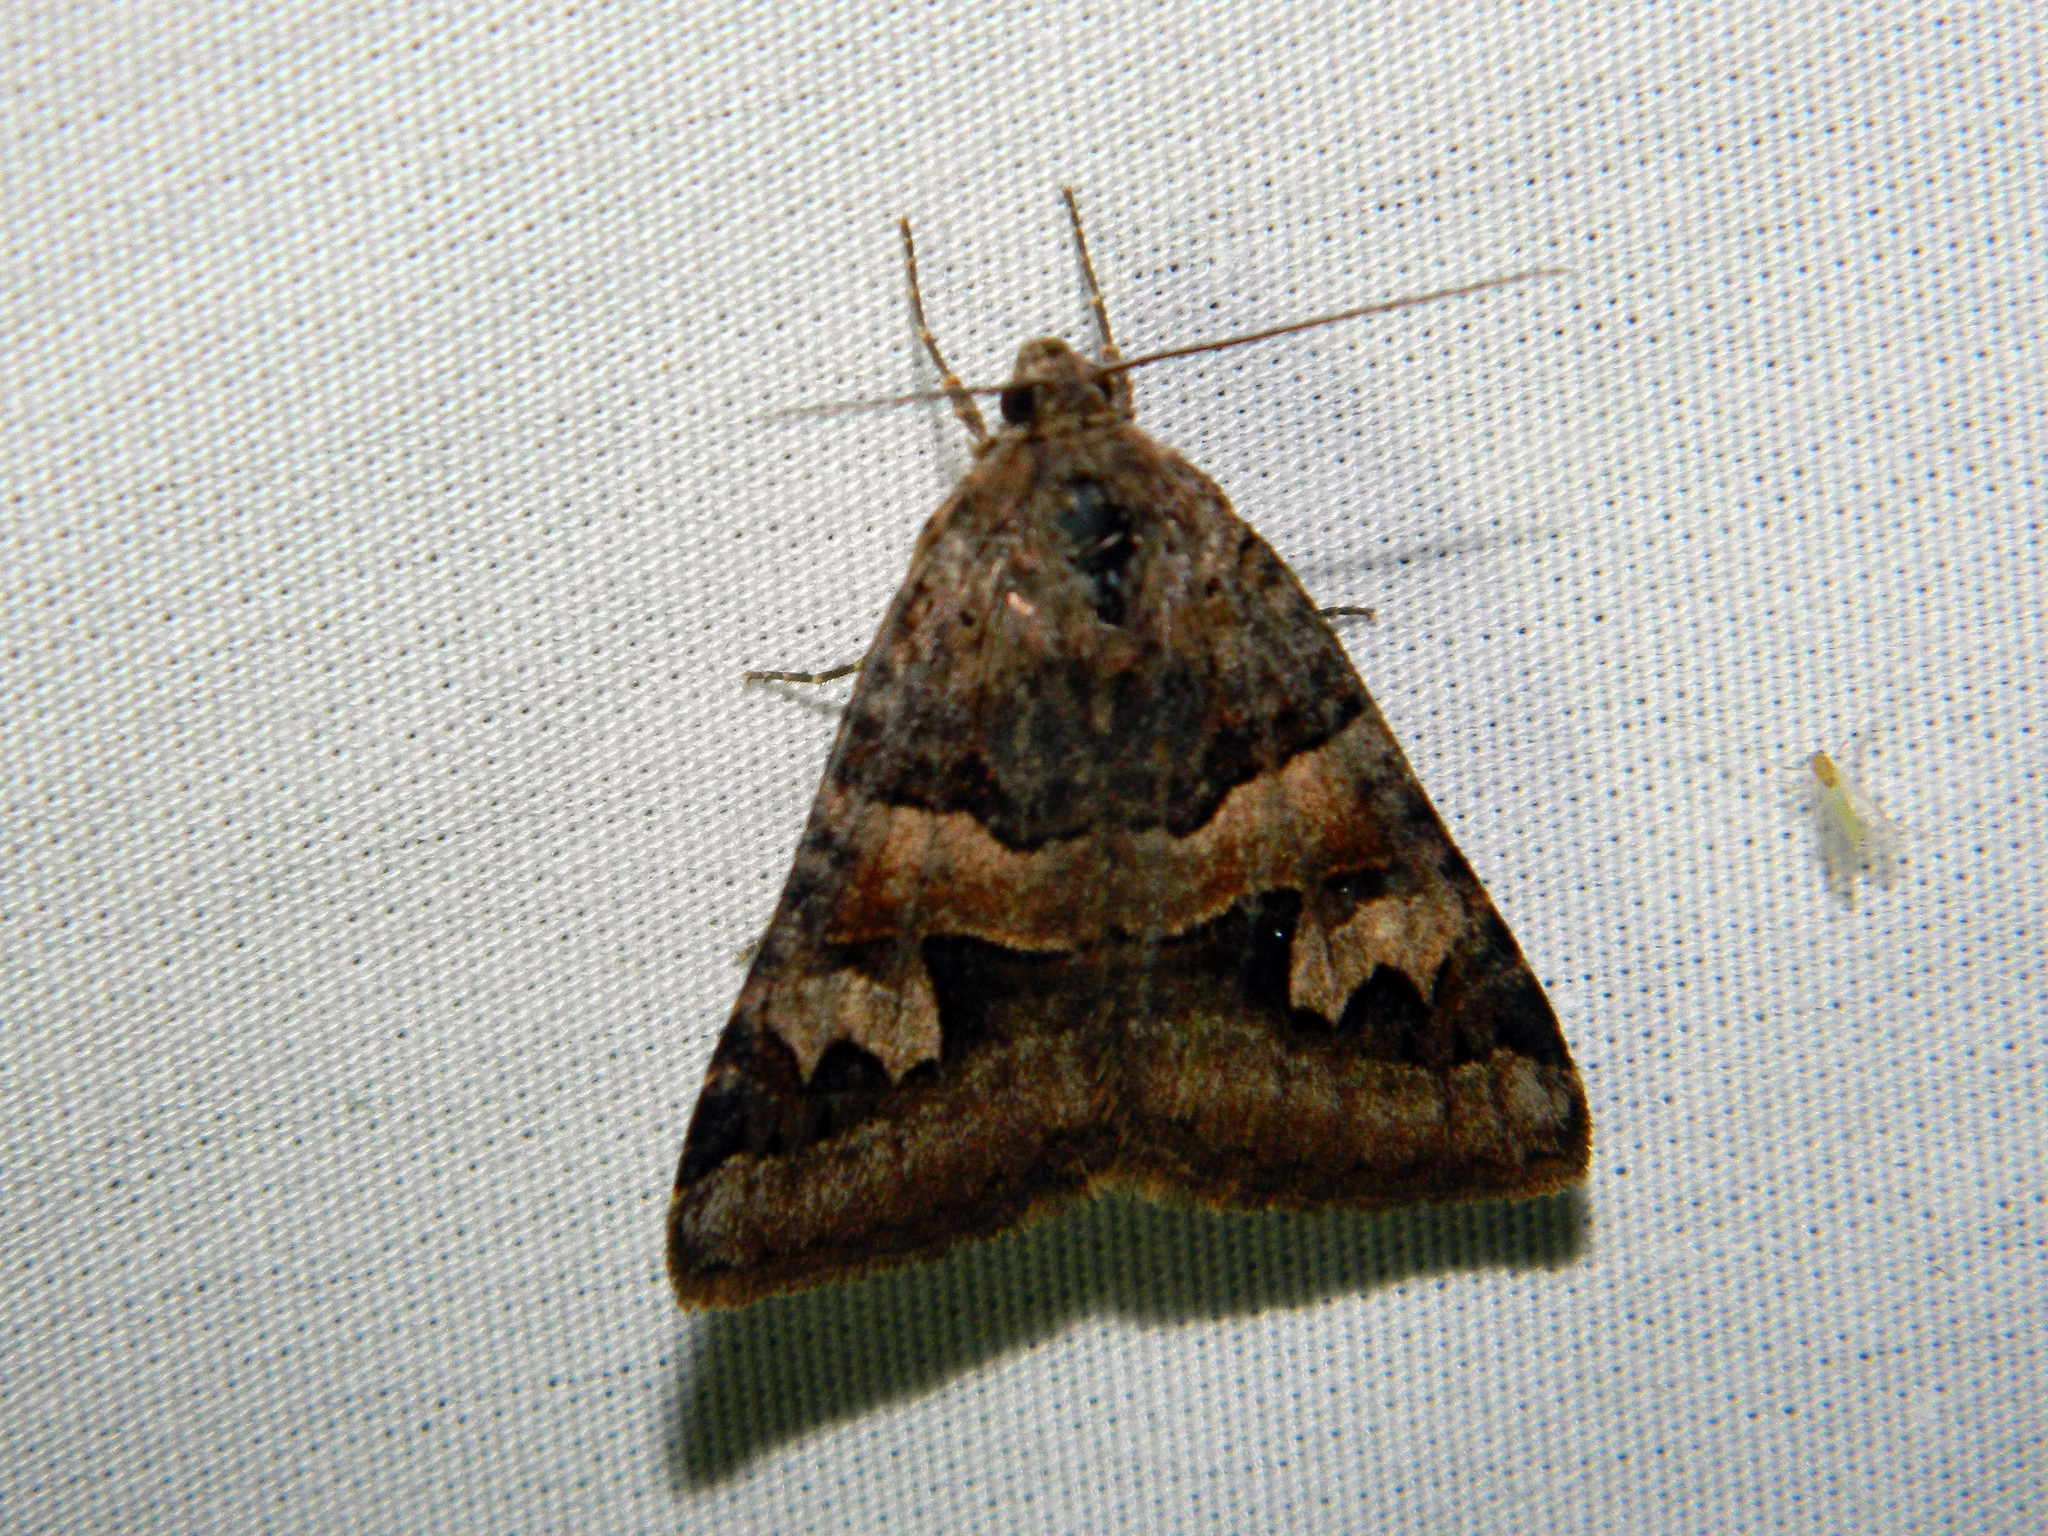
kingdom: Animalia
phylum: Arthropoda
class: Insecta
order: Lepidoptera
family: Erebidae
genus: Drasteria
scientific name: Drasteria adumbrata
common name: Shadowy arches
